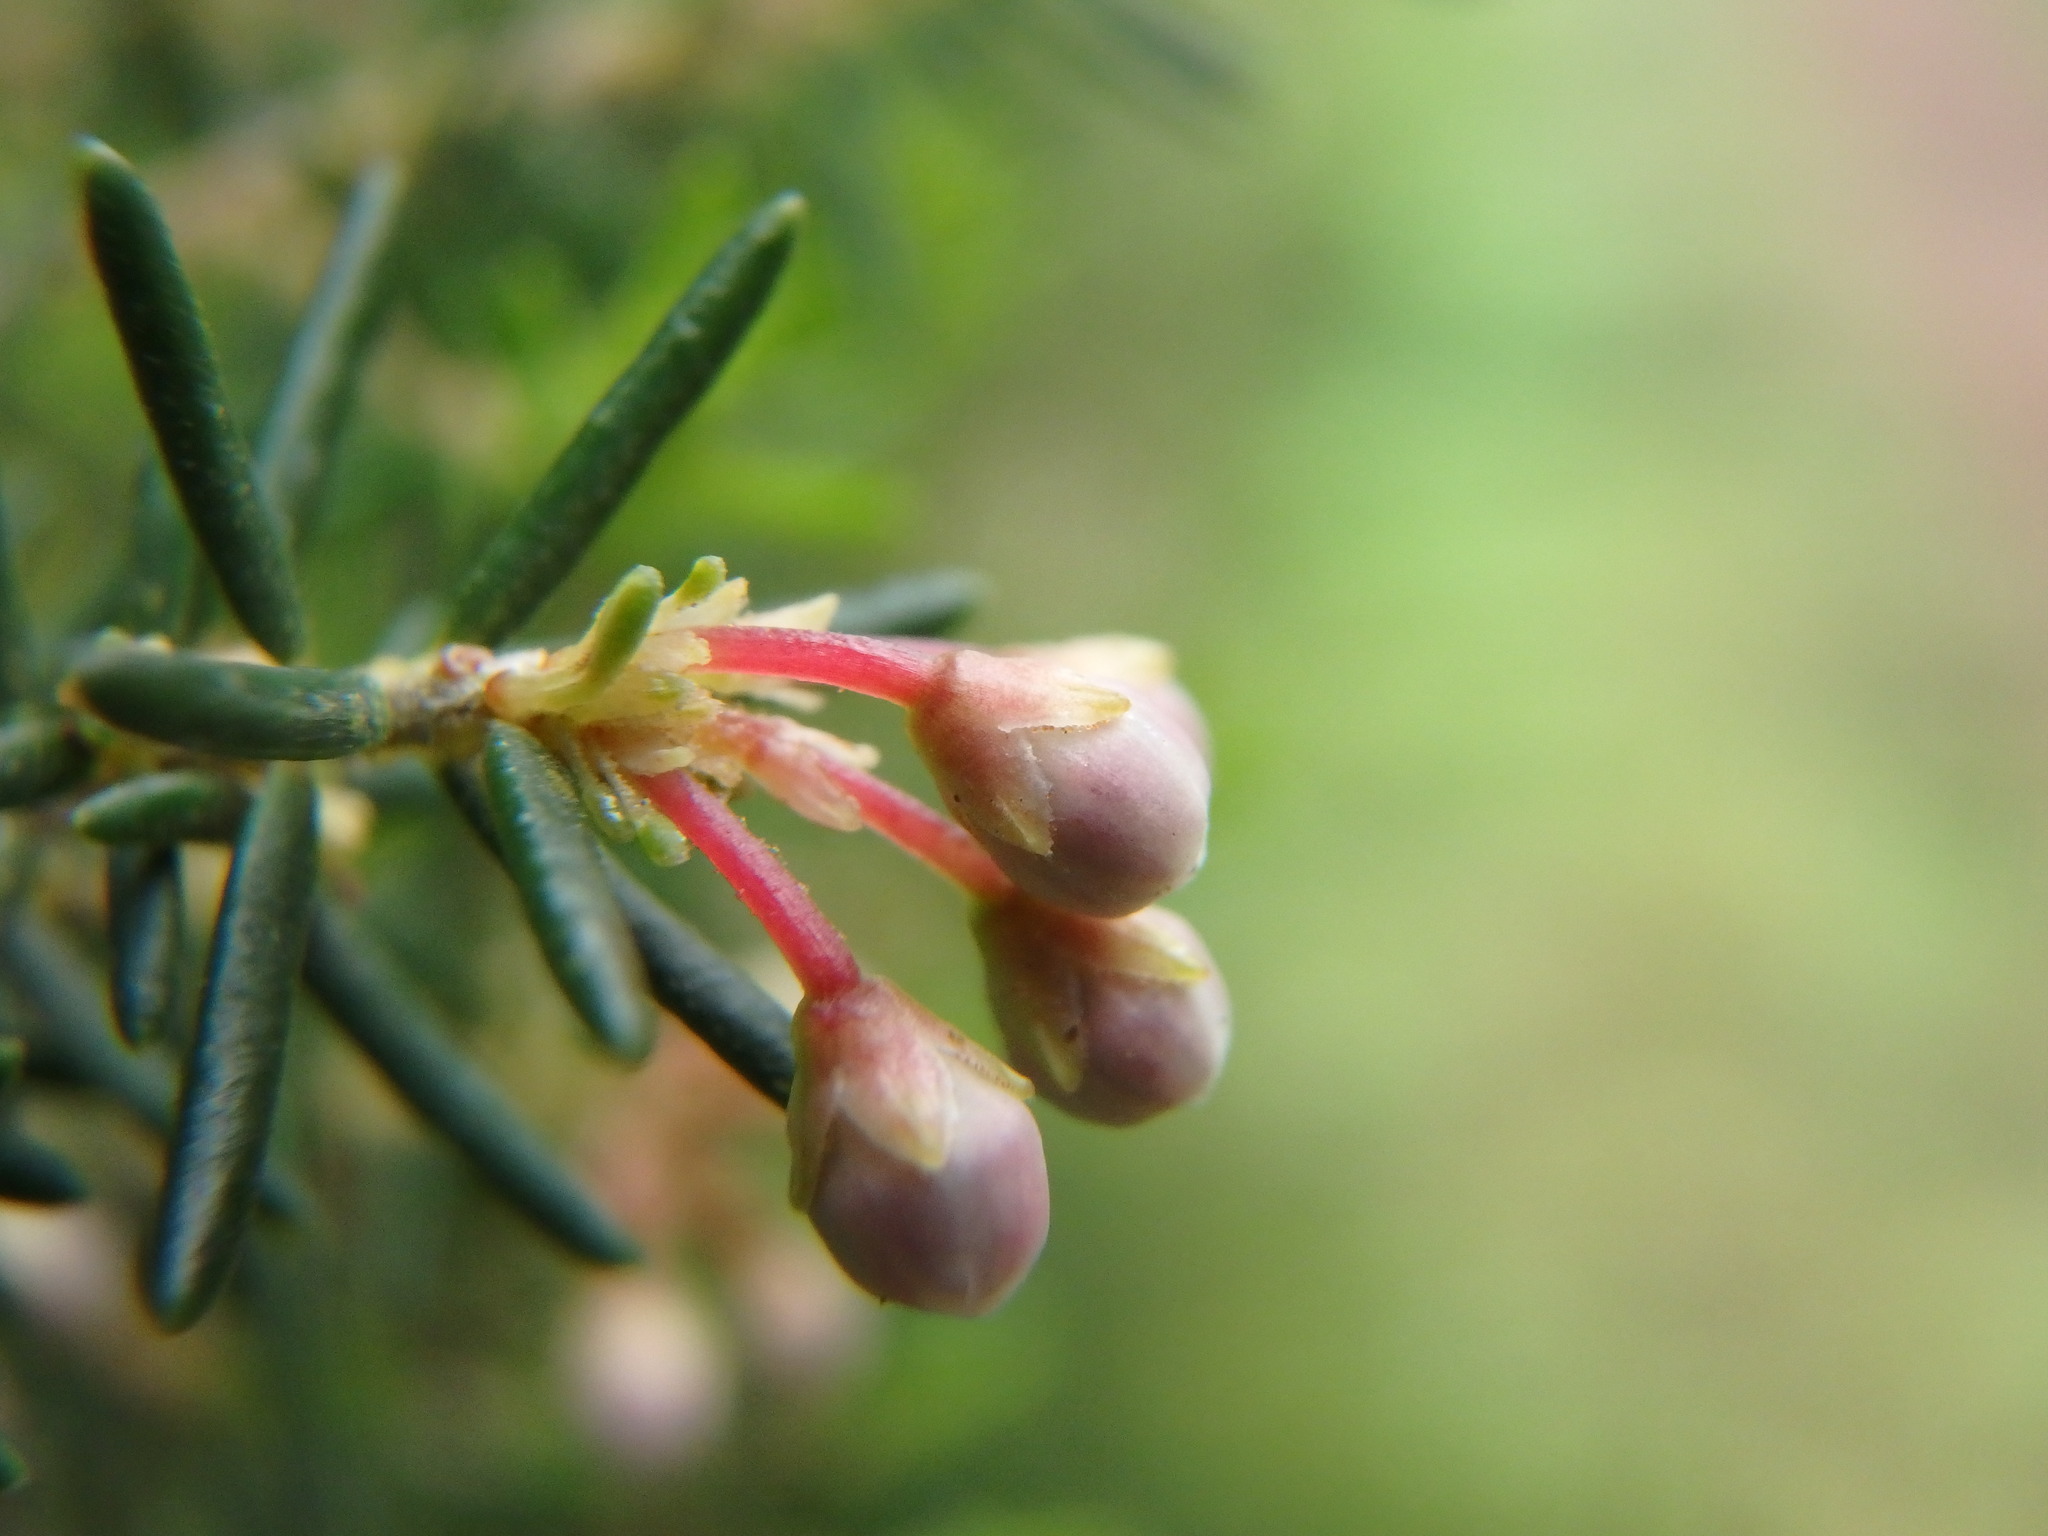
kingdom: Plantae
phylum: Tracheophyta
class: Magnoliopsida
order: Ericales
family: Ericaceae
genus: Erica
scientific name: Erica canariensis
